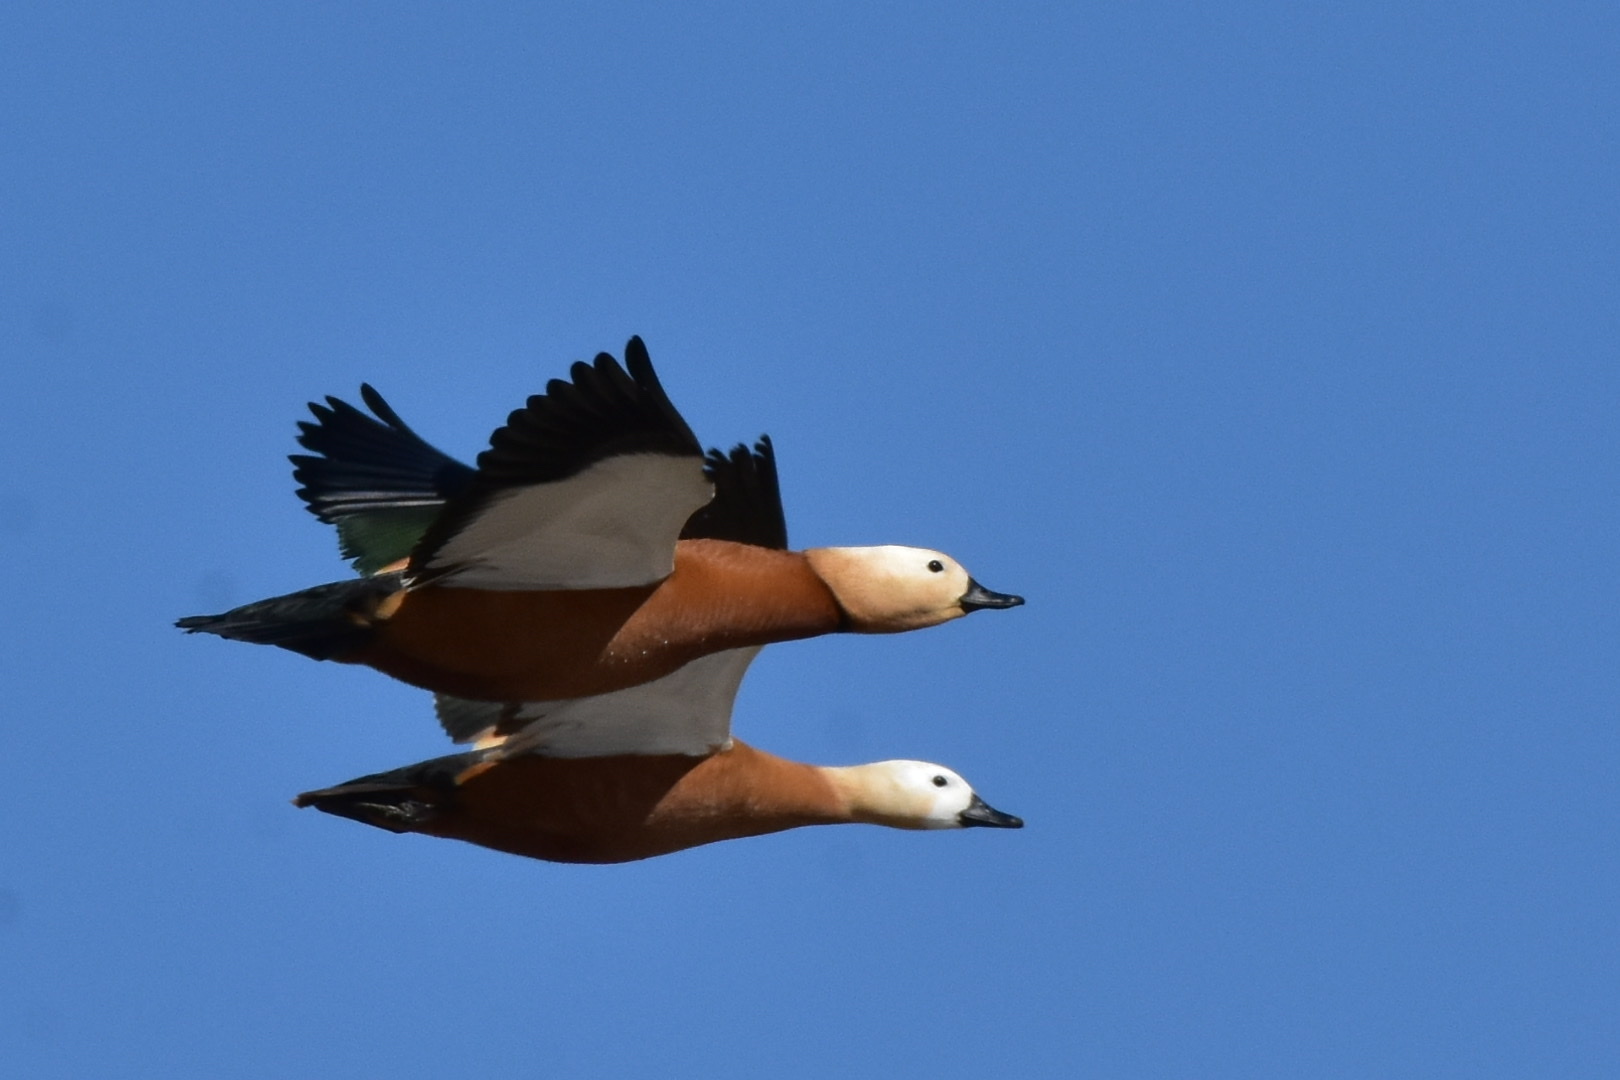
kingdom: Animalia
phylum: Chordata
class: Aves
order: Anseriformes
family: Anatidae
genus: Tadorna
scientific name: Tadorna ferruginea
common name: Ruddy shelduck
